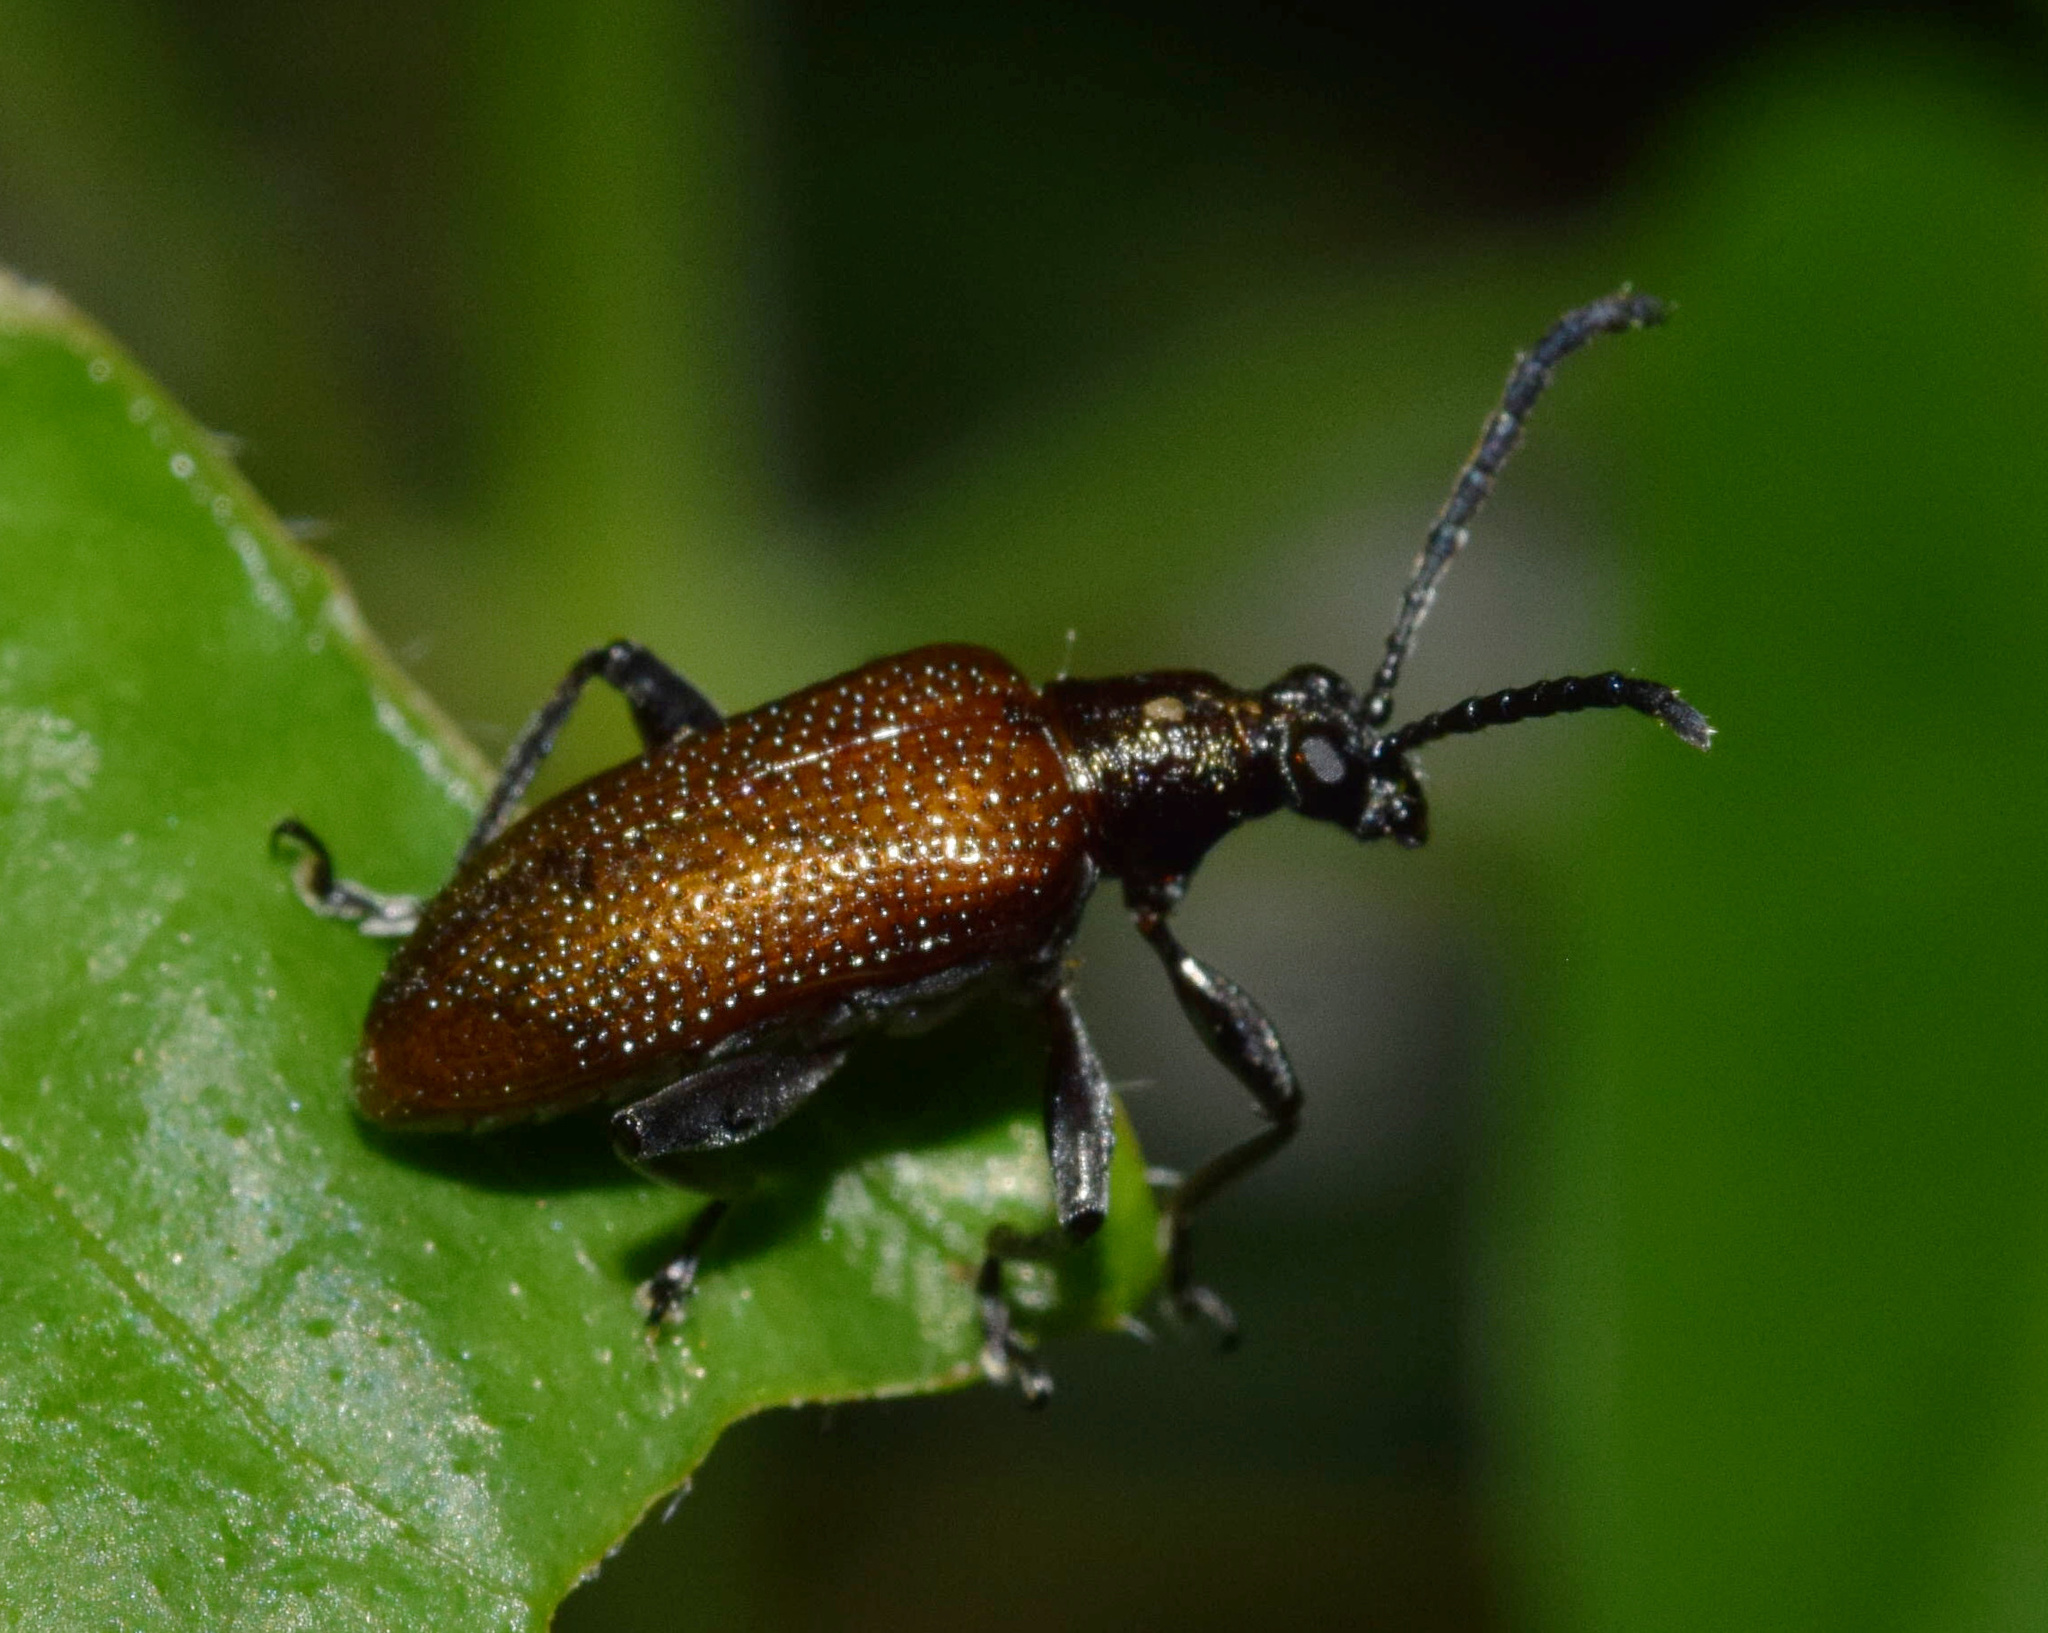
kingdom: Animalia
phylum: Arthropoda
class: Insecta
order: Coleoptera
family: Chrysomelidae
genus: Lema
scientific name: Lema
